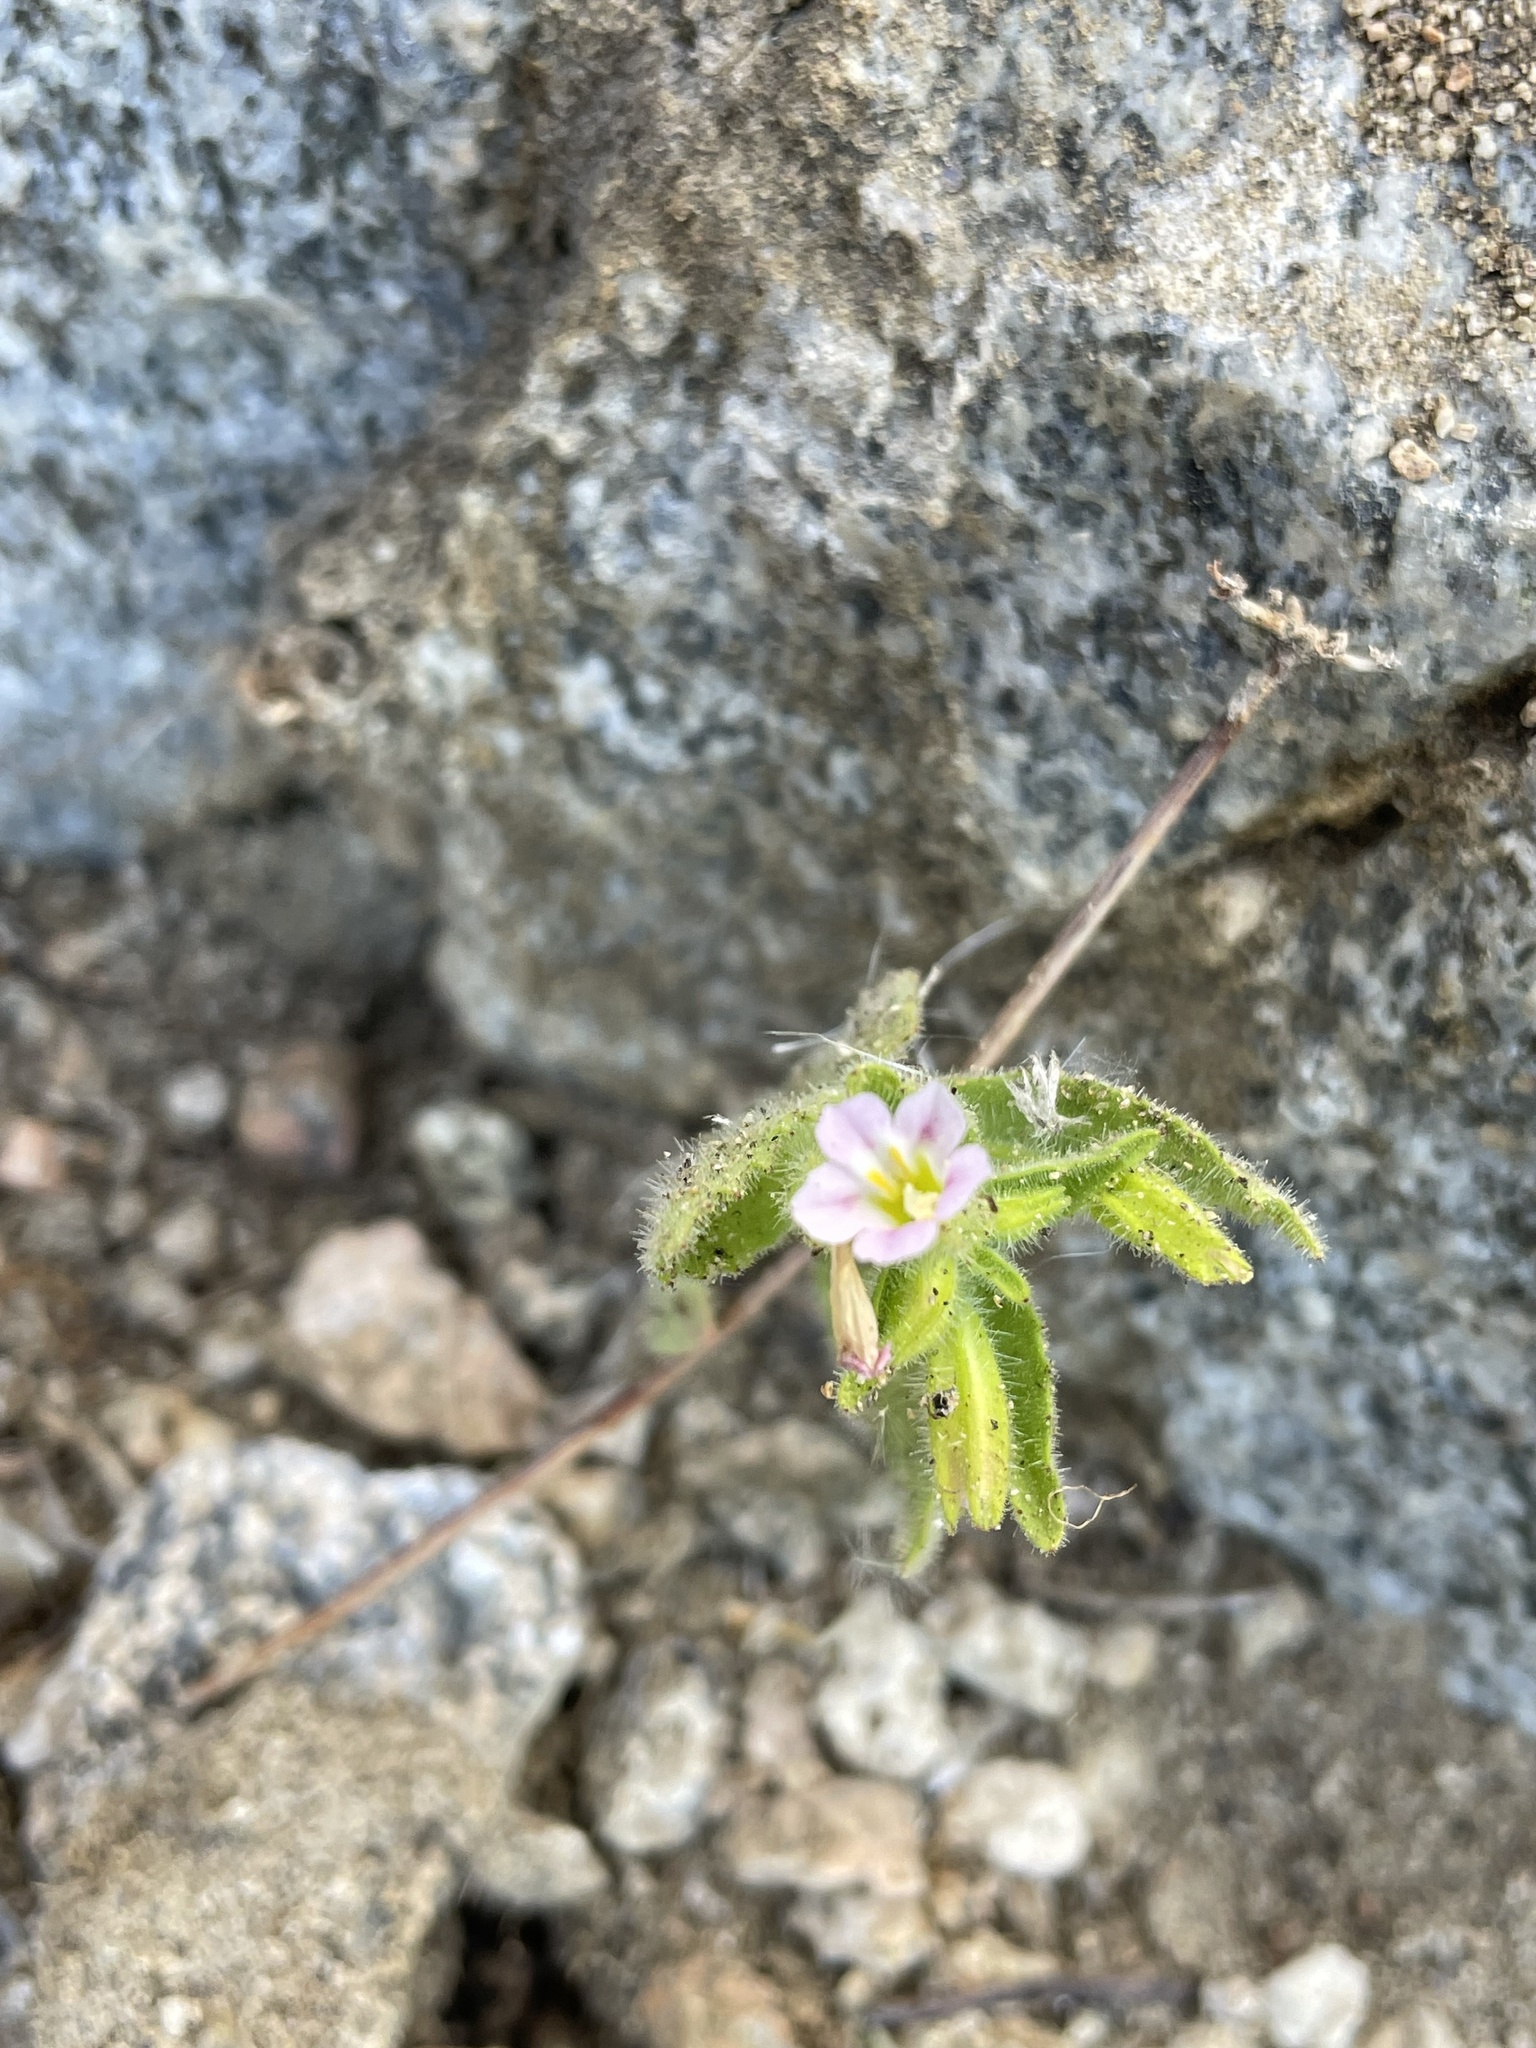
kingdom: Plantae
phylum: Tracheophyta
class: Magnoliopsida
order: Lamiales
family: Phrymaceae
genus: Erythranthe
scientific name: Erythranthe parishii
